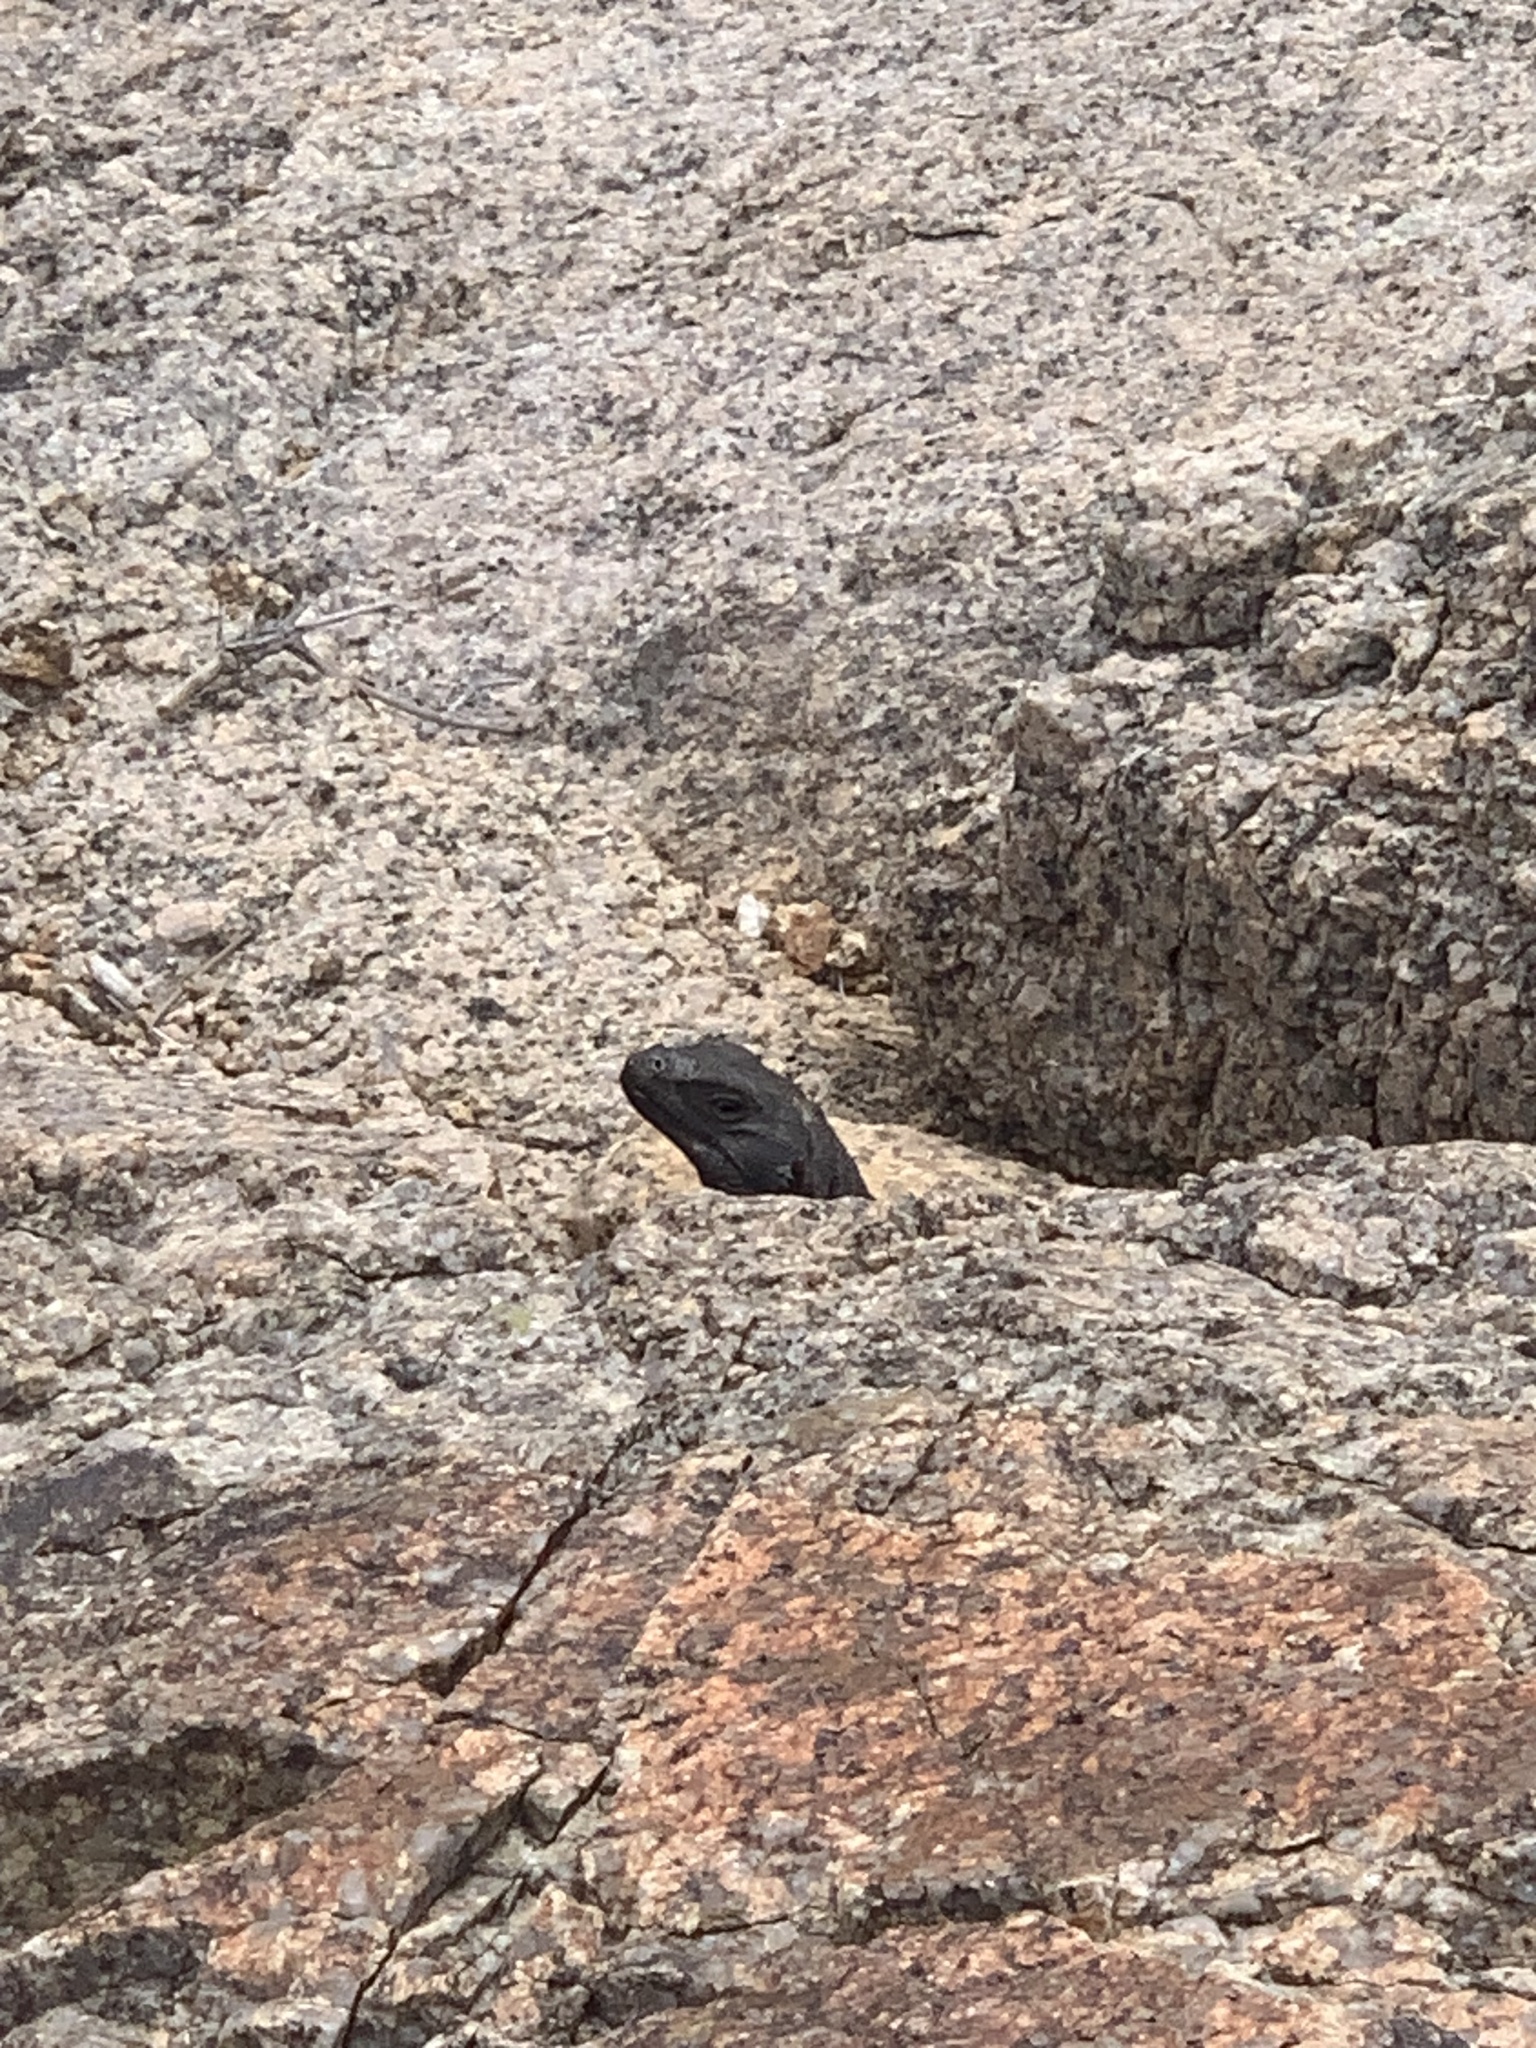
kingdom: Animalia
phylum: Chordata
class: Squamata
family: Iguanidae
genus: Sauromalus
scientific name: Sauromalus ater
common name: Northern chuckwalla
